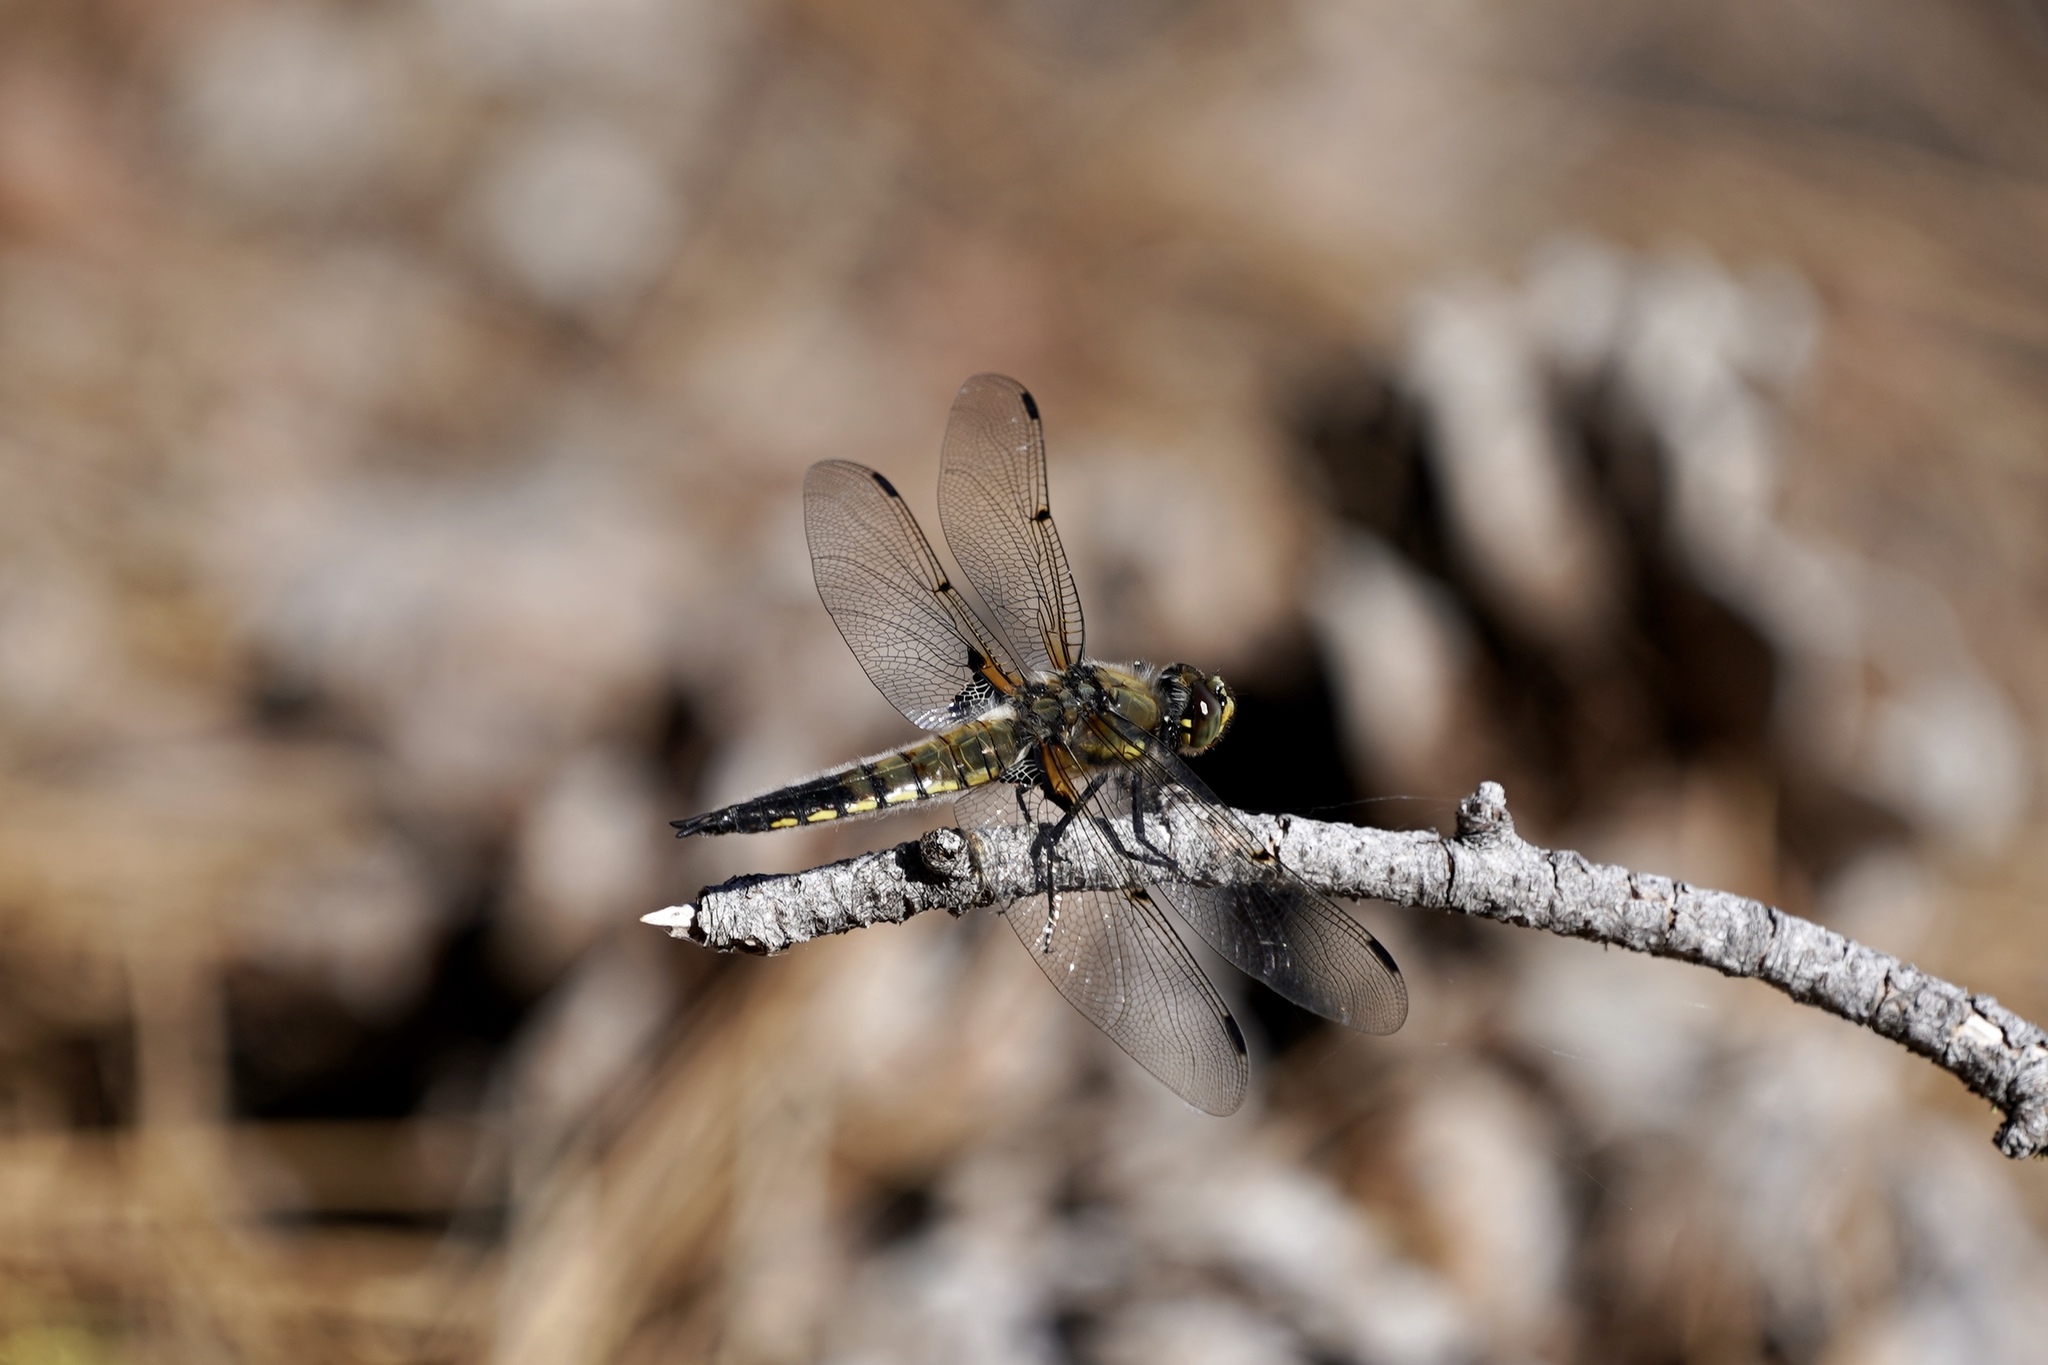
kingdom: Animalia
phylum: Arthropoda
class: Insecta
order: Odonata
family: Libellulidae
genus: Libellula
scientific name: Libellula quadrimaculata
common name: Four-spotted chaser
